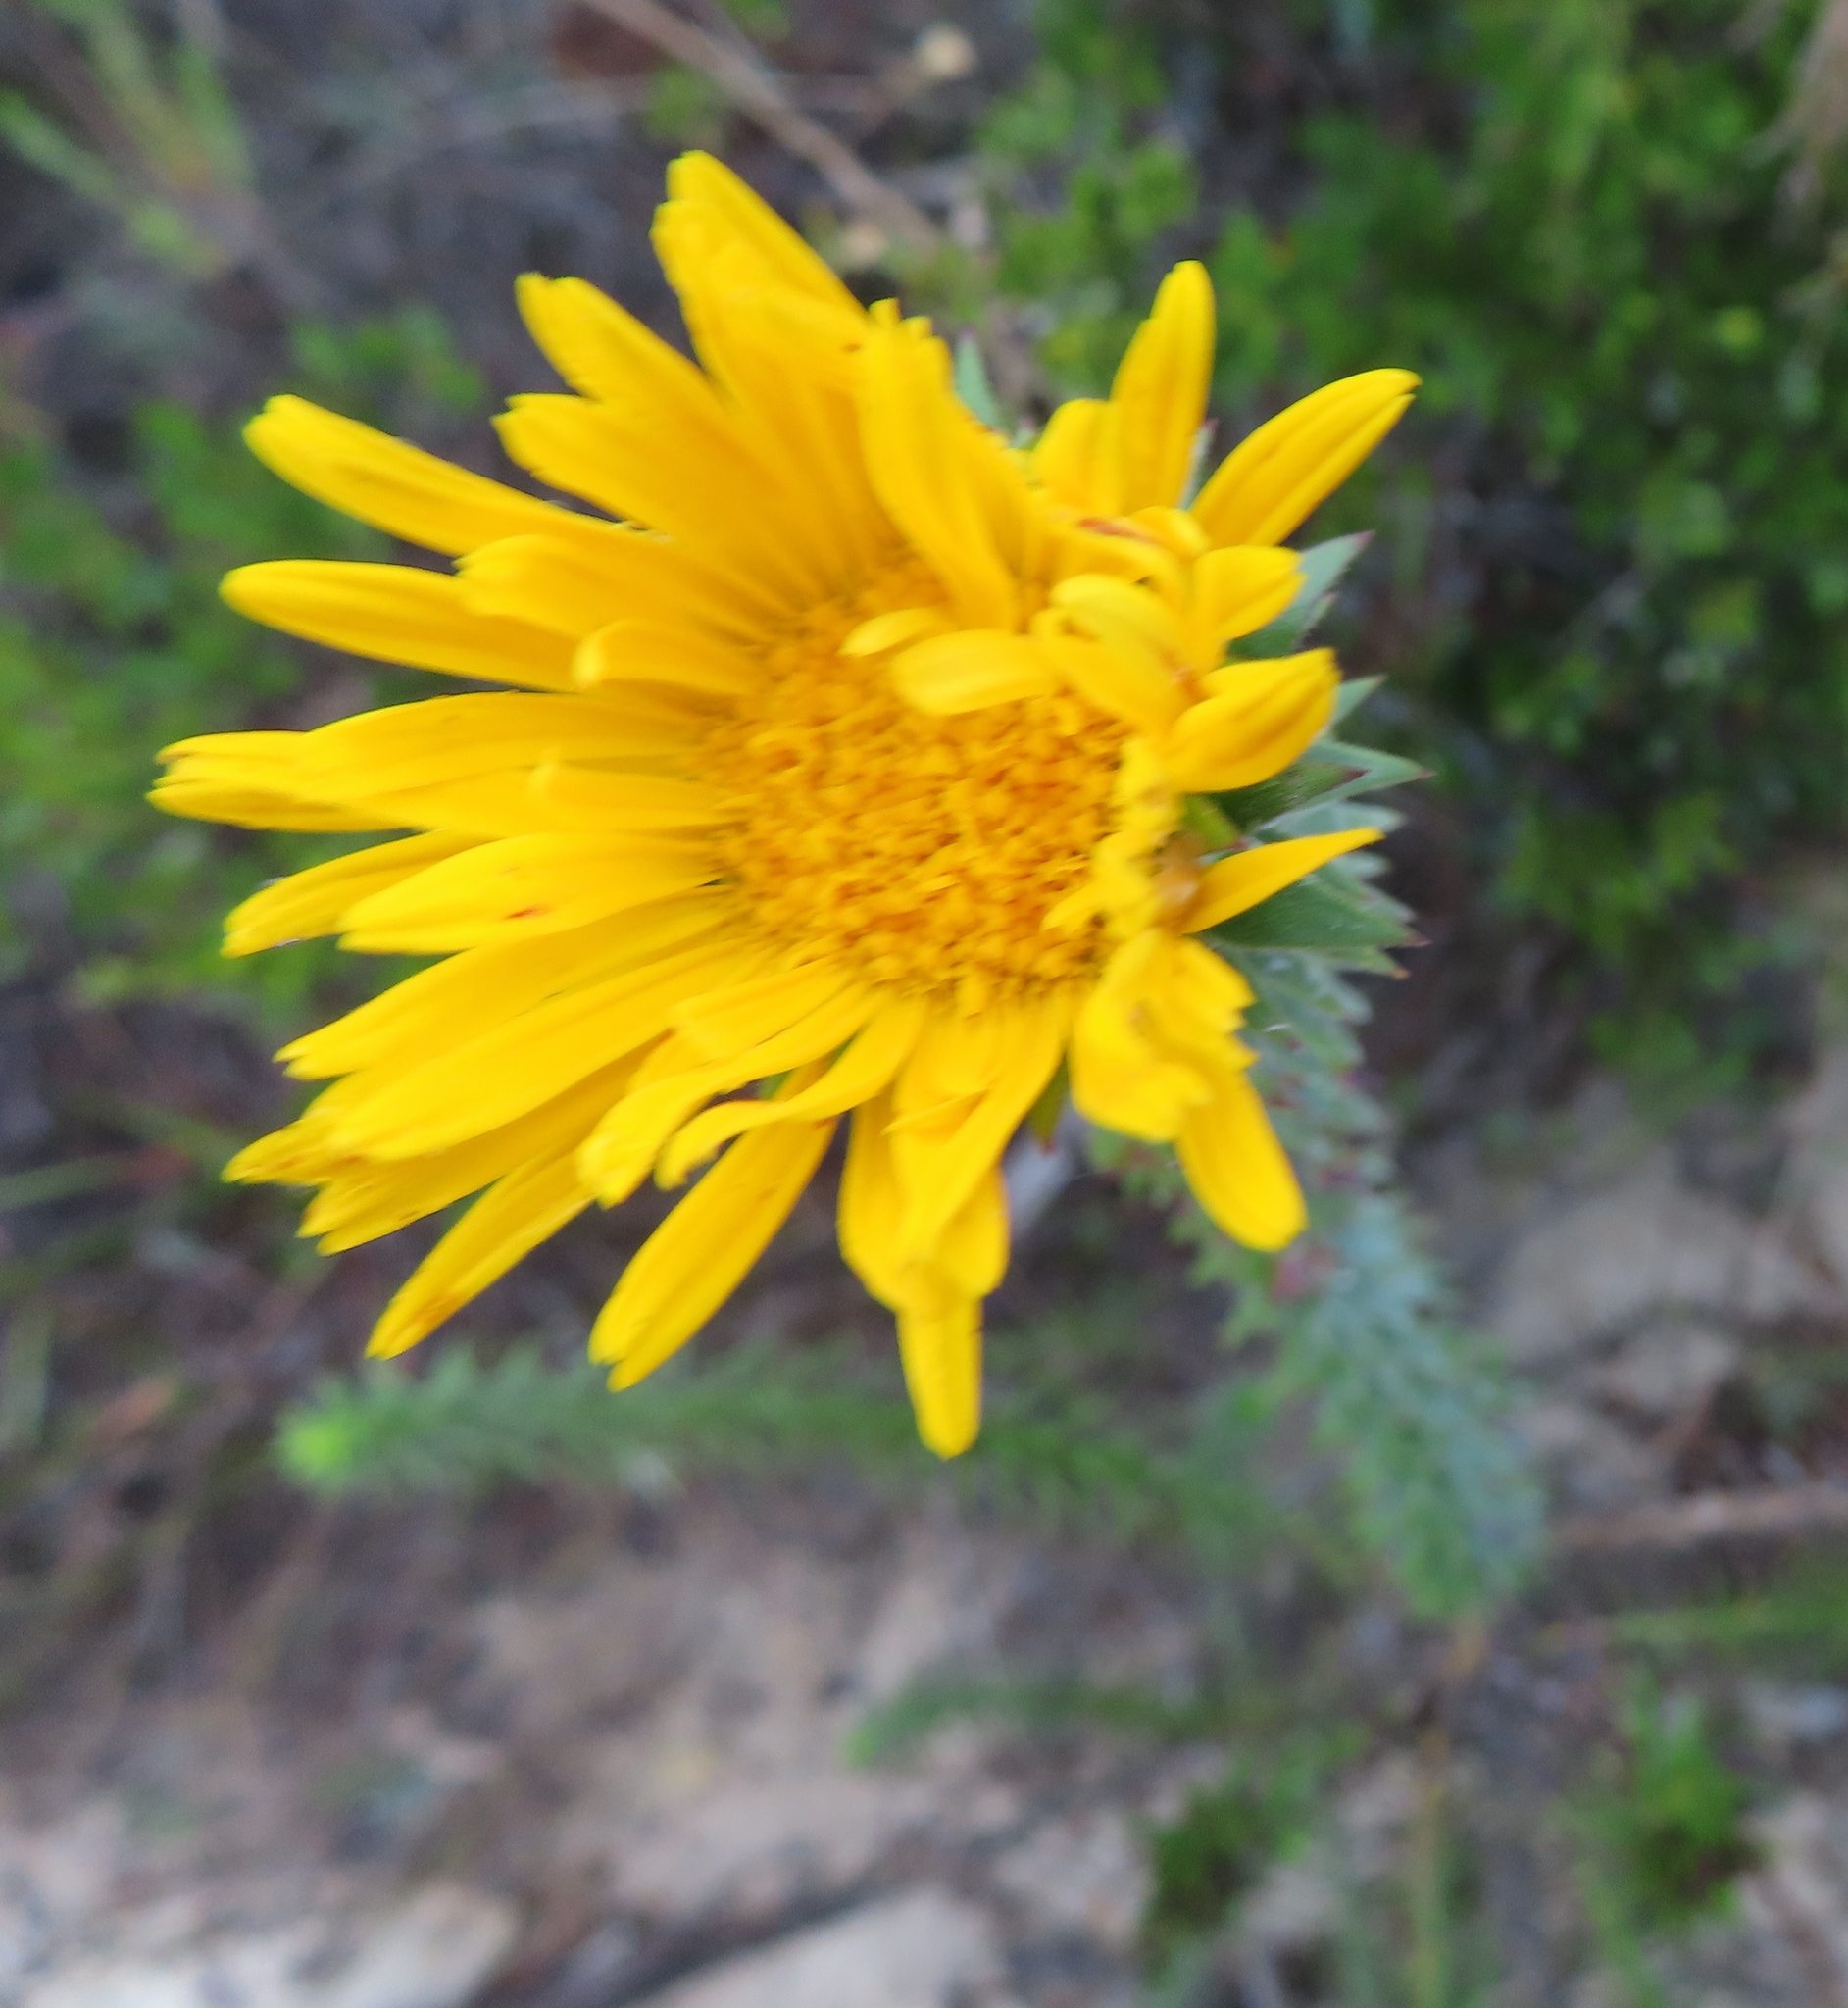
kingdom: Plantae
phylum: Tracheophyta
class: Magnoliopsida
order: Asterales
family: Asteraceae
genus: Oedera
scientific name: Oedera capensis
